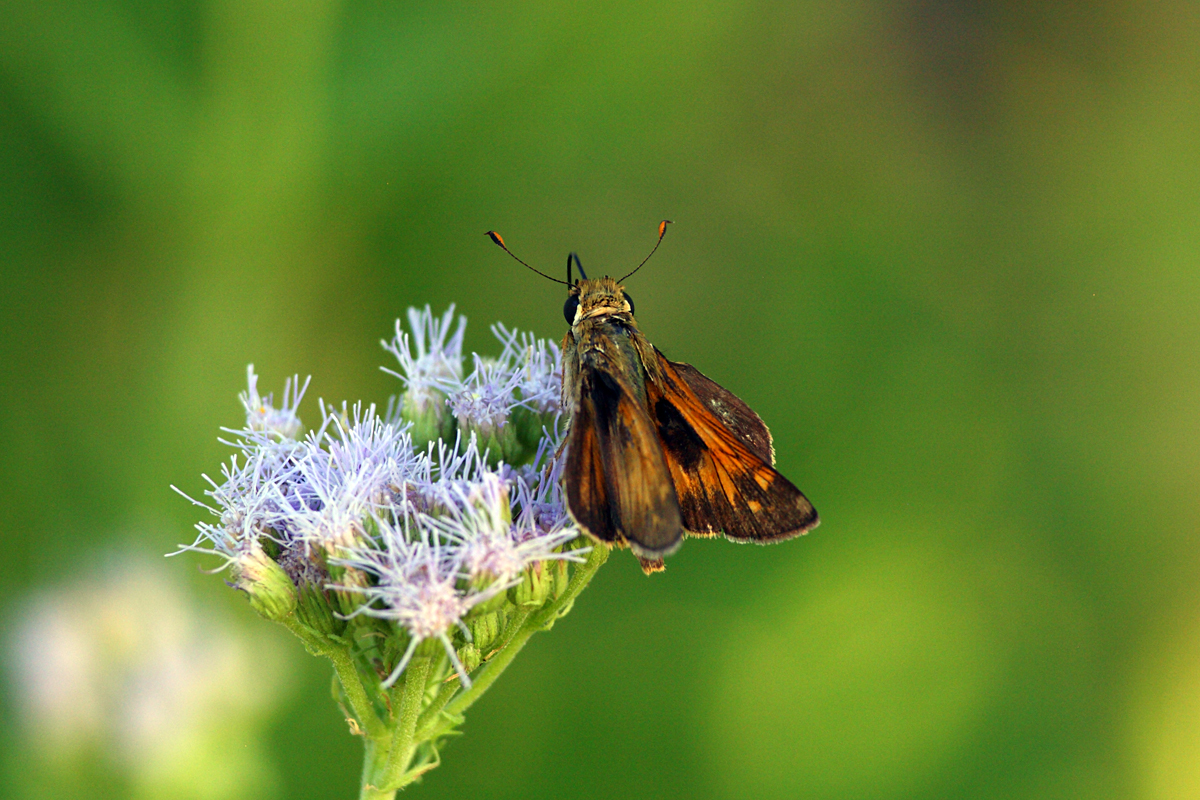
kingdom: Animalia
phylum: Arthropoda
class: Insecta
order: Lepidoptera
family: Hesperiidae
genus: Atalopedes
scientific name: Atalopedes
